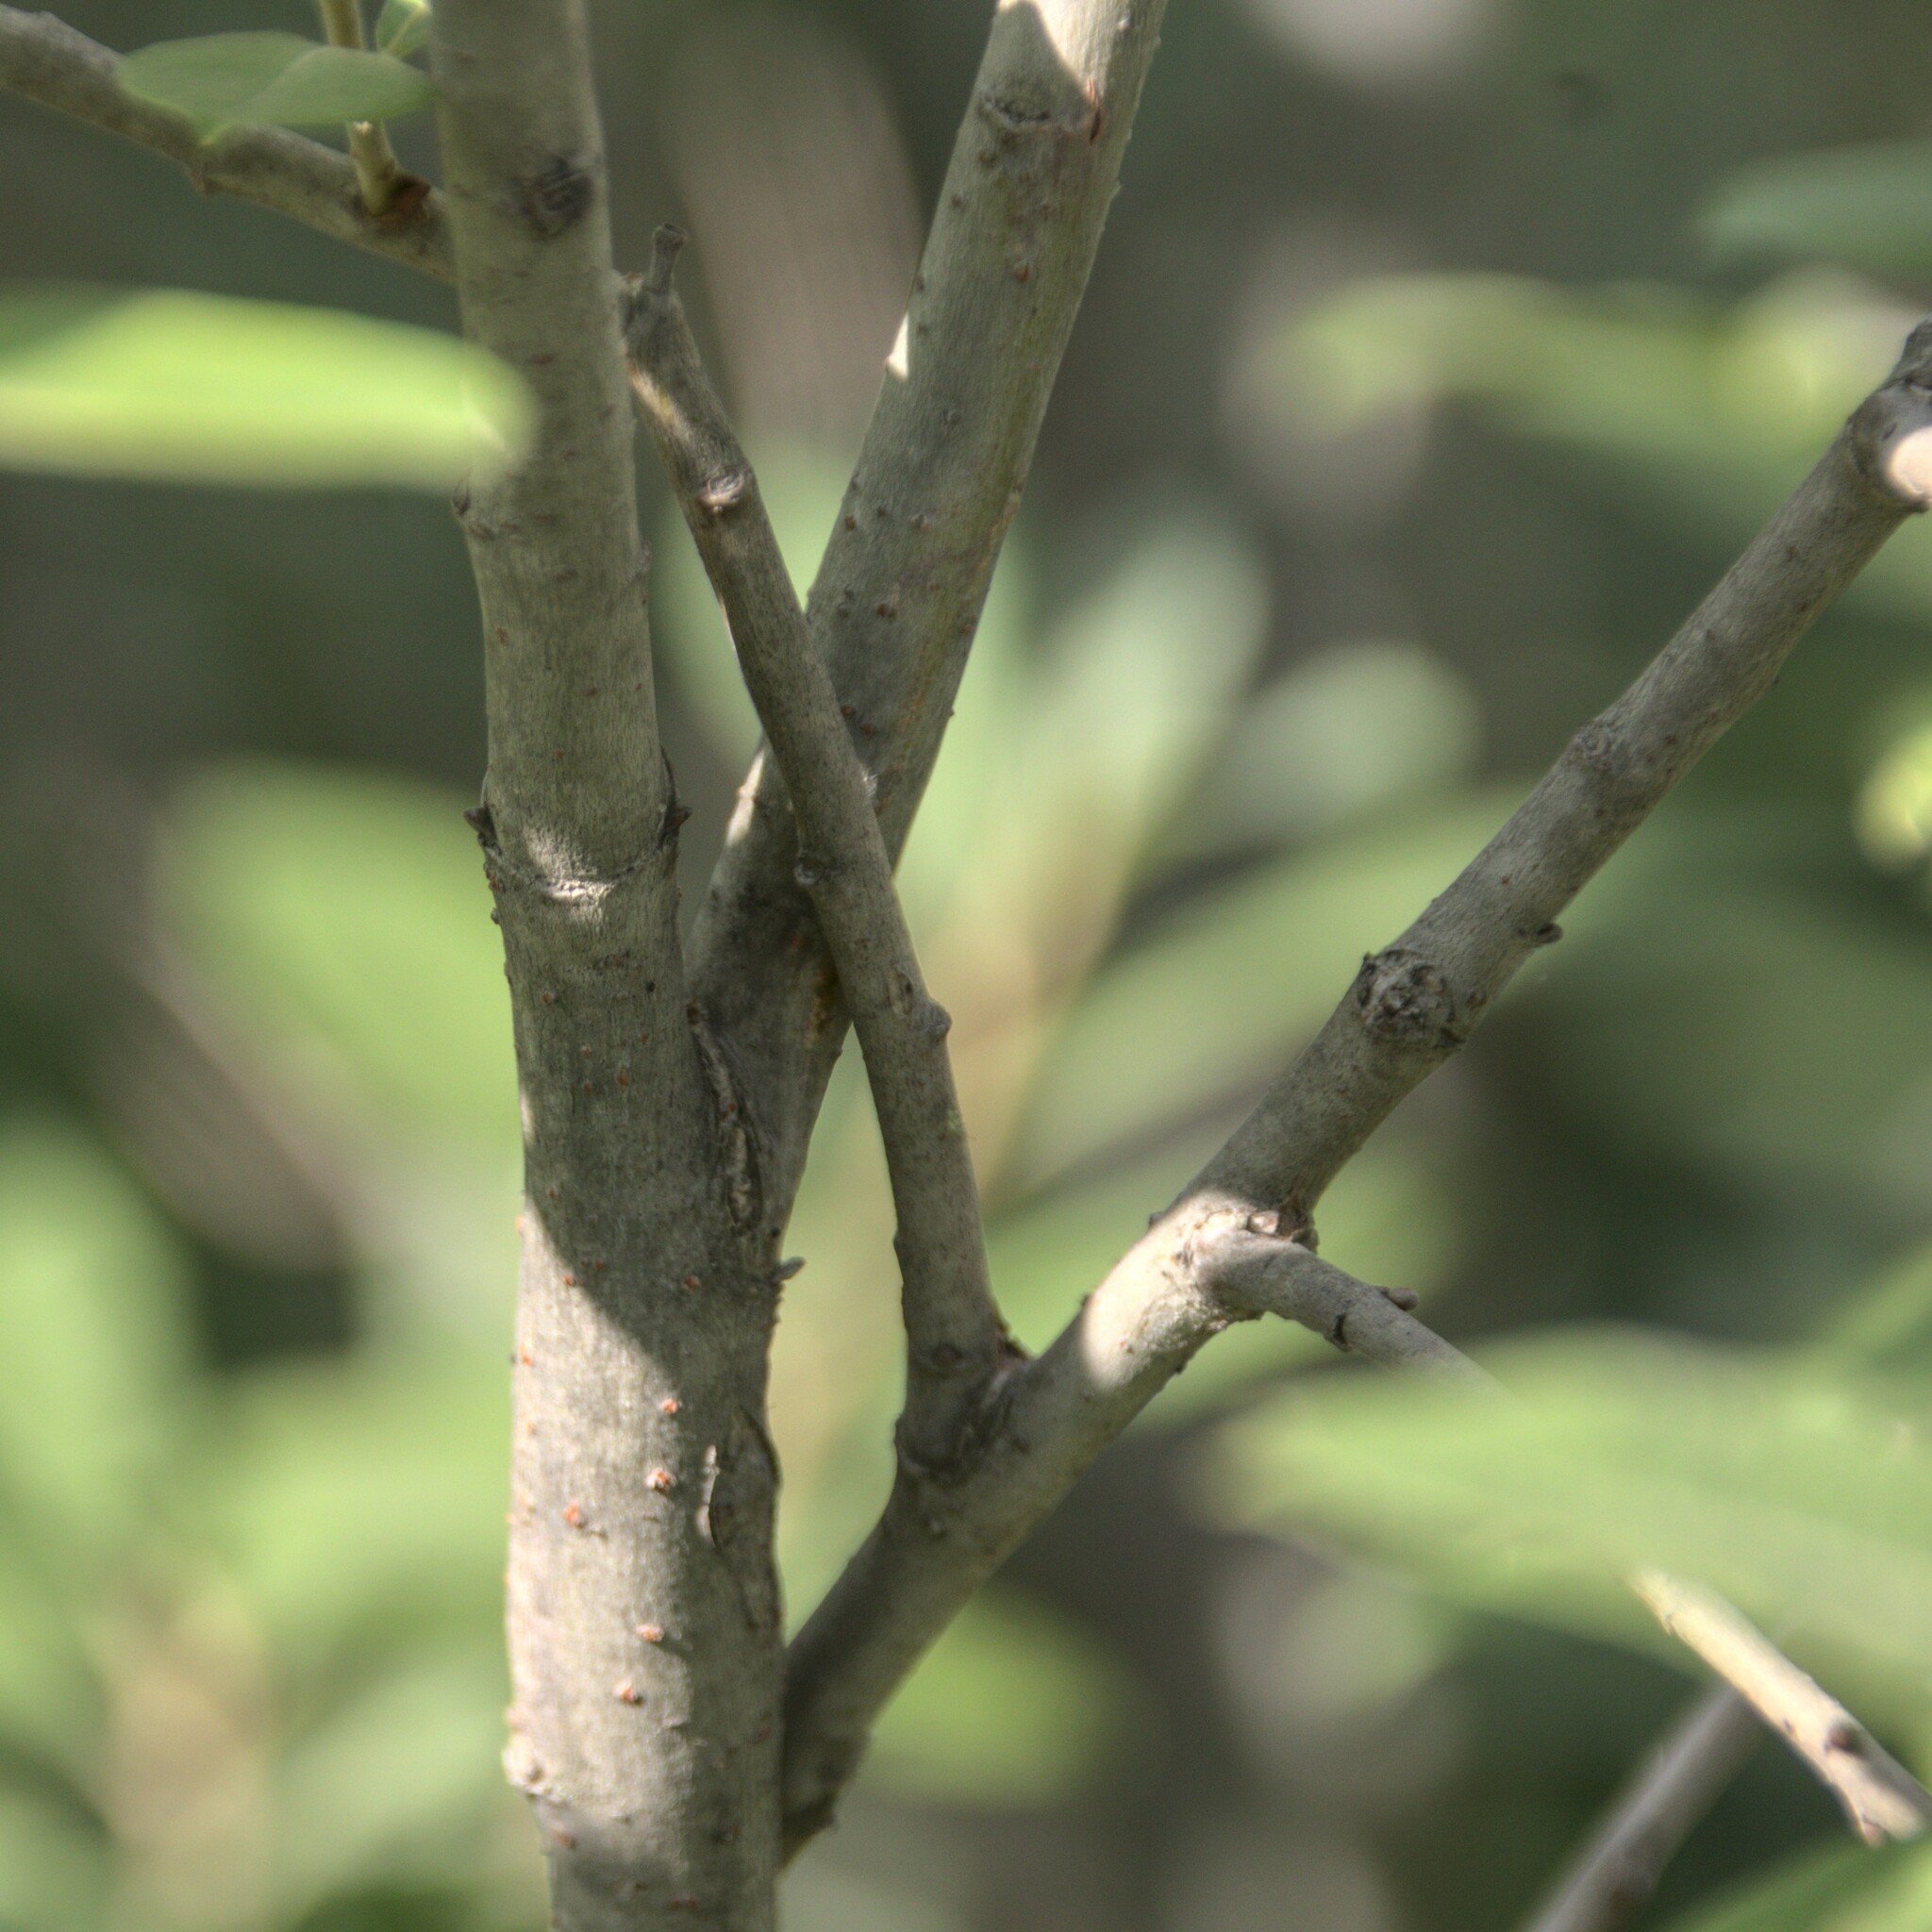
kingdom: Plantae
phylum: Tracheophyta
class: Magnoliopsida
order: Malpighiales
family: Salicaceae
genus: Salix
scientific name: Salix cinerea
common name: Common sallow
